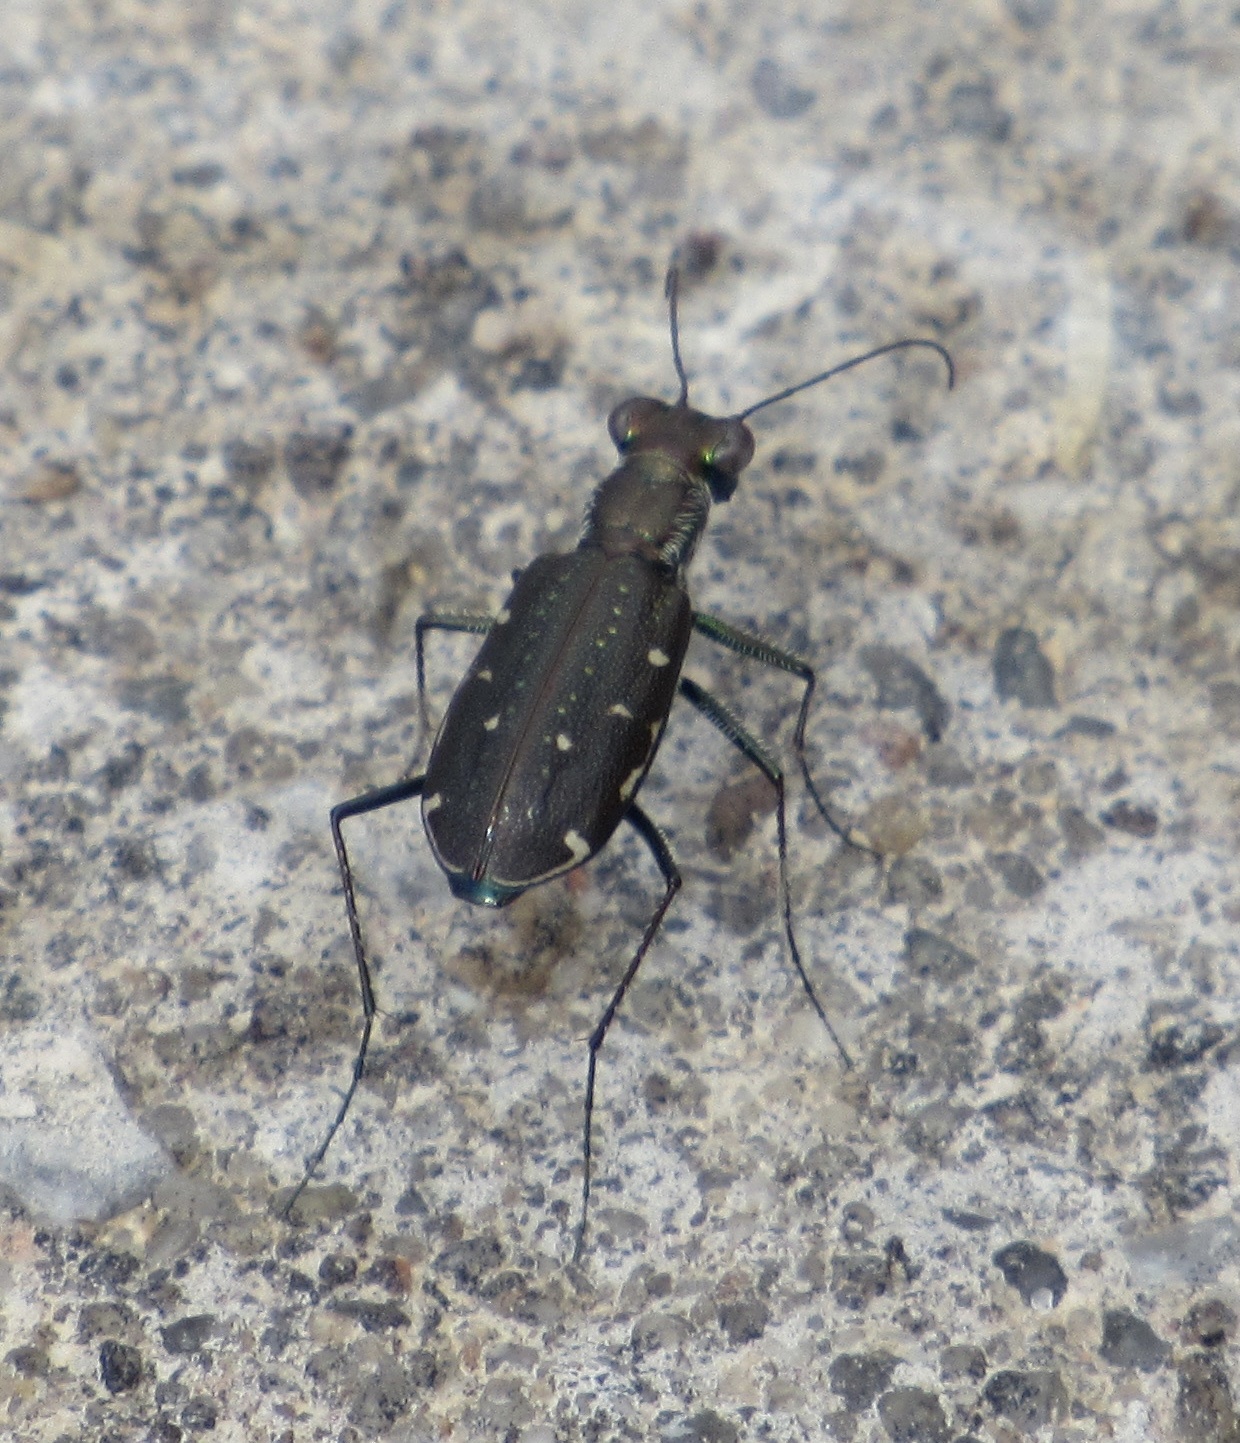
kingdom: Animalia
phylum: Arthropoda
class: Insecta
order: Coleoptera
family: Carabidae
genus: Cicindela
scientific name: Cicindela punctulata
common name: Punctured tiger beetle
